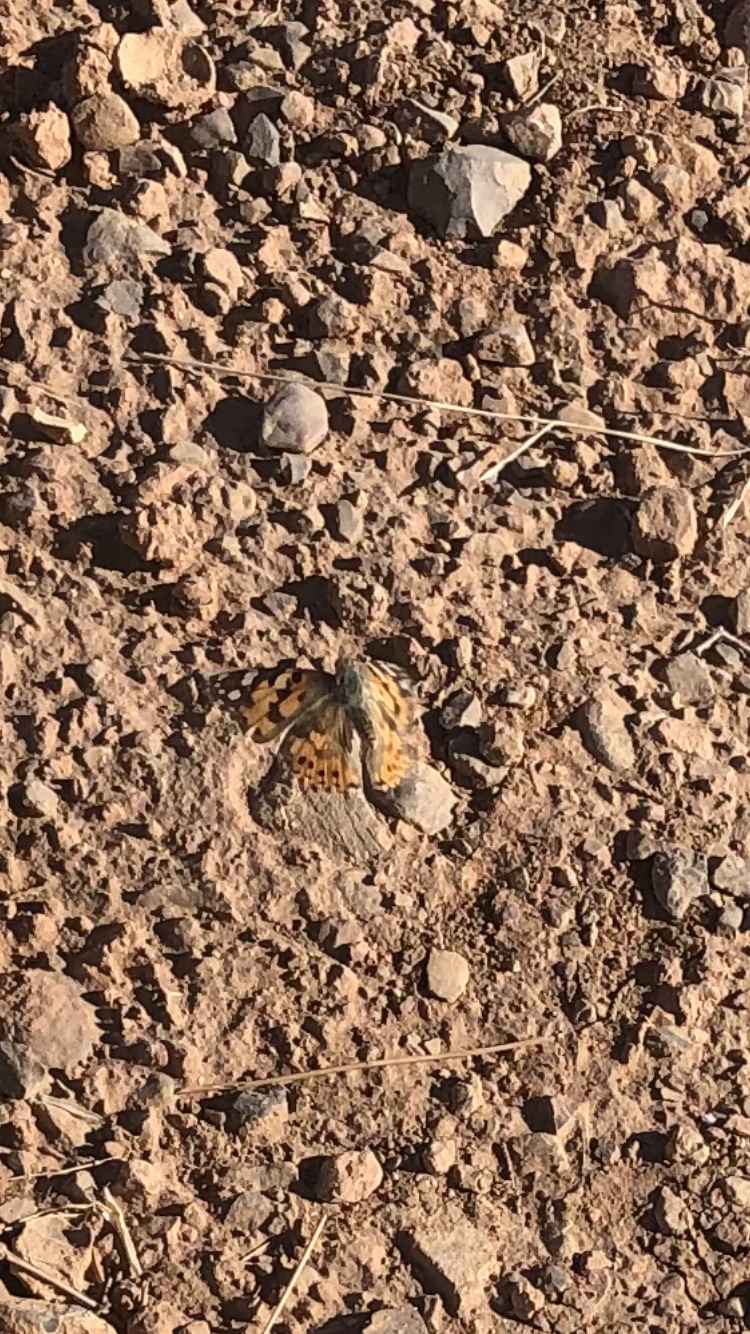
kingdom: Animalia
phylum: Arthropoda
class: Insecta
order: Lepidoptera
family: Nymphalidae
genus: Vanessa
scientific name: Vanessa cardui
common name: Painted lady
